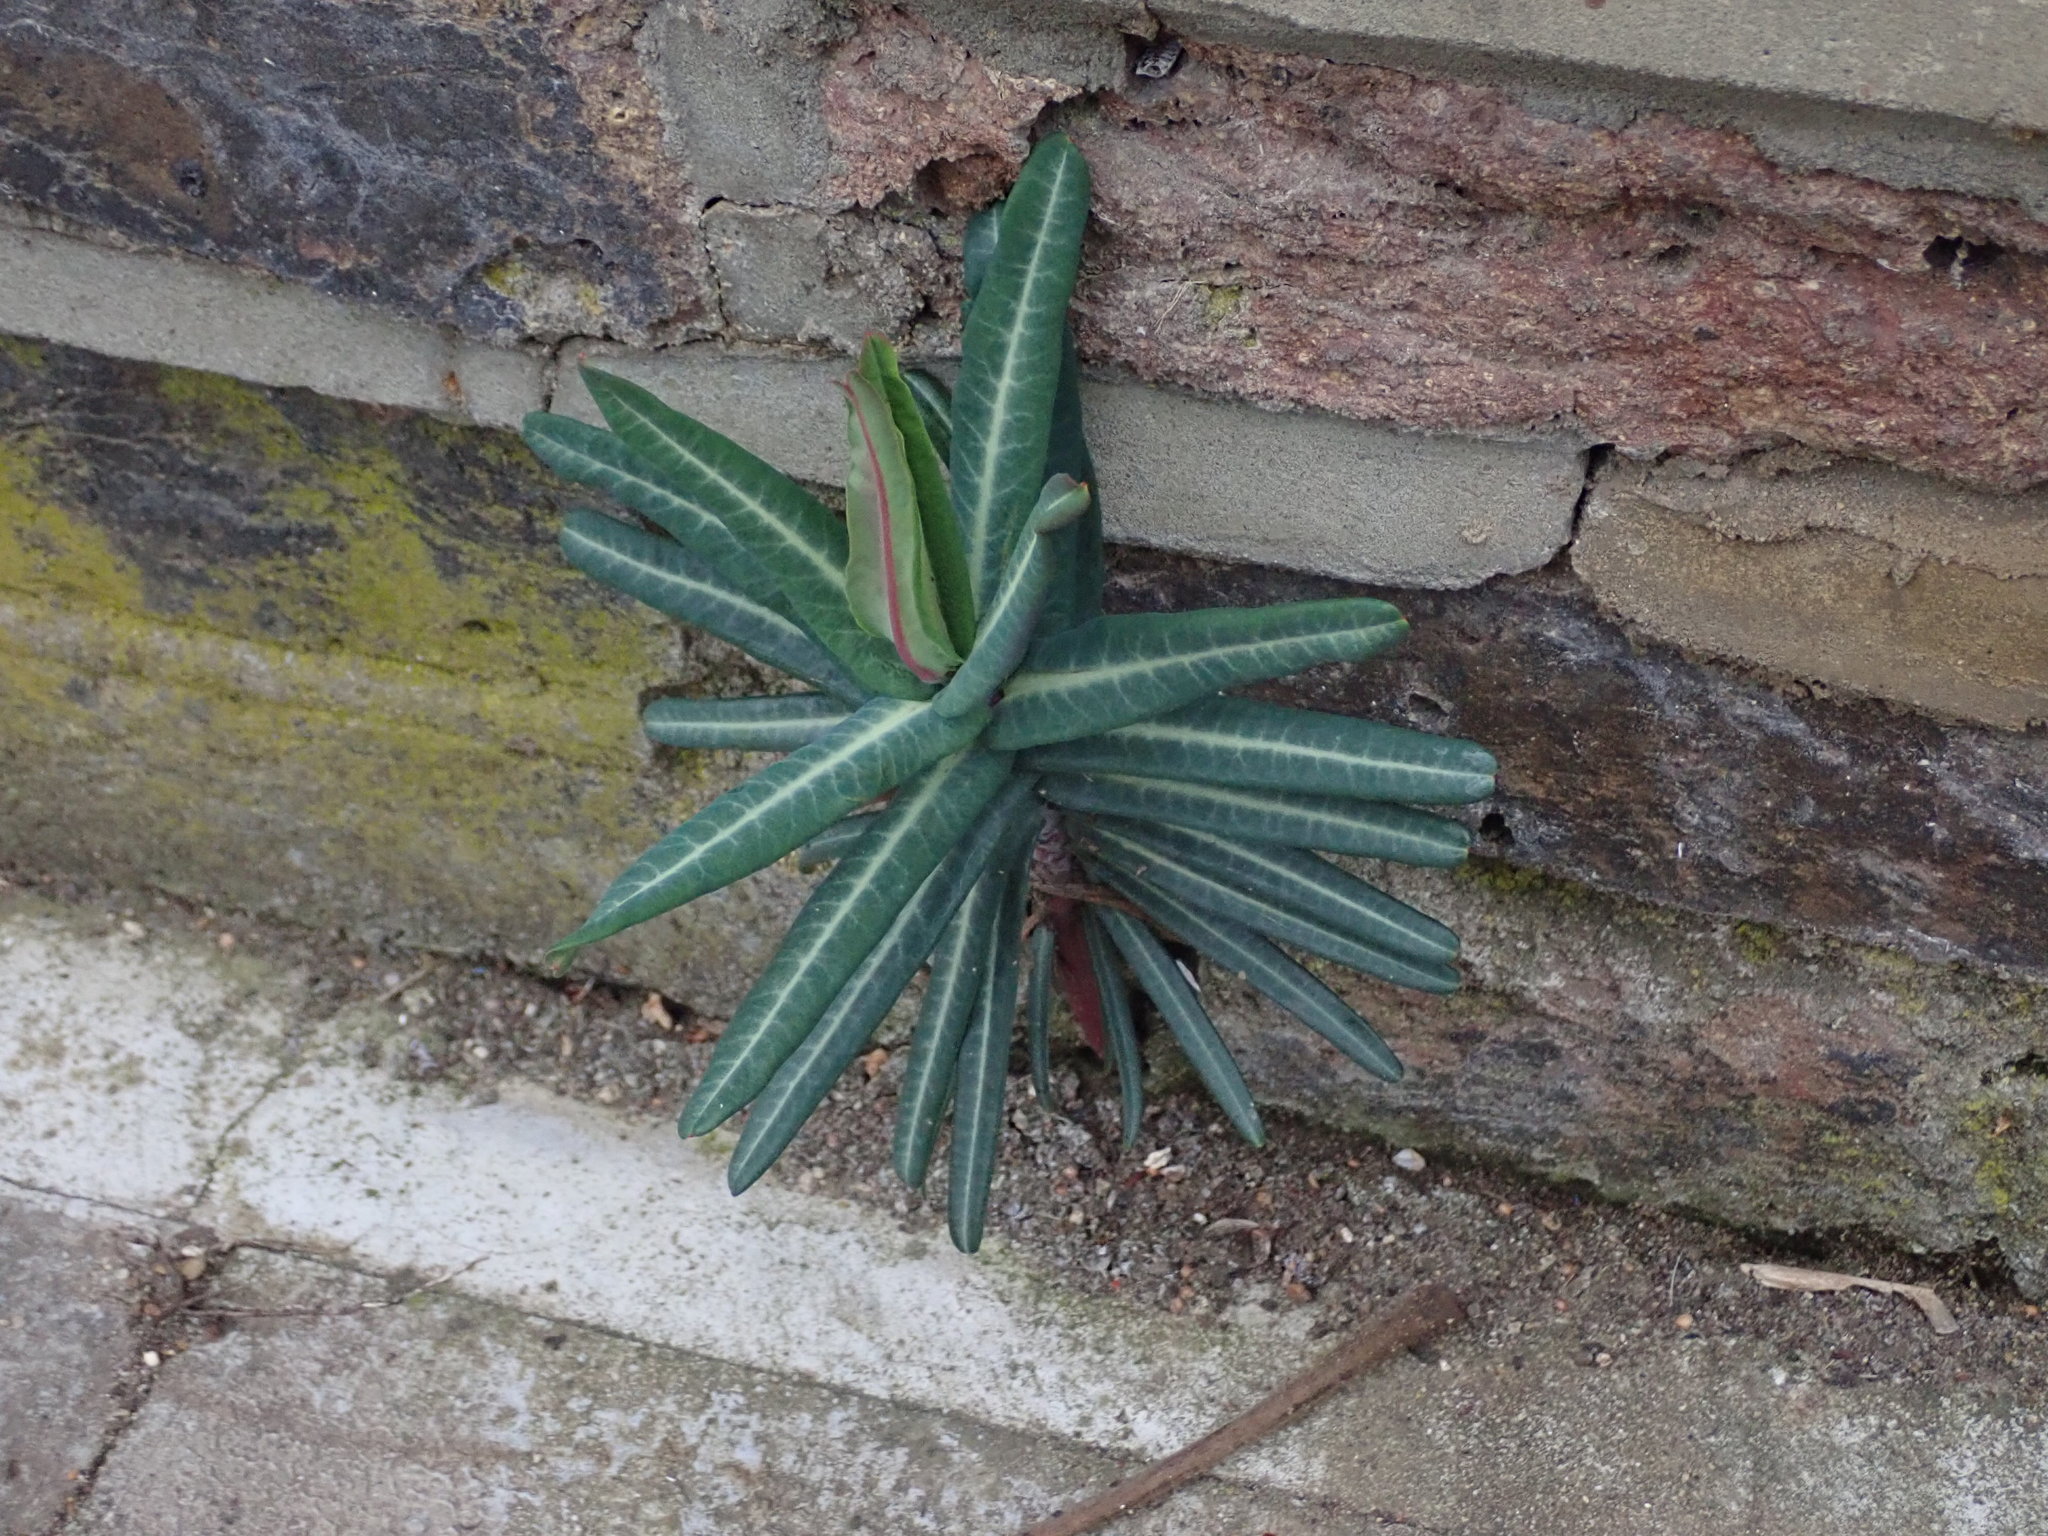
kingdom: Plantae
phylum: Tracheophyta
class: Magnoliopsida
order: Malpighiales
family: Euphorbiaceae
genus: Euphorbia
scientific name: Euphorbia lathyris
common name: Caper spurge
